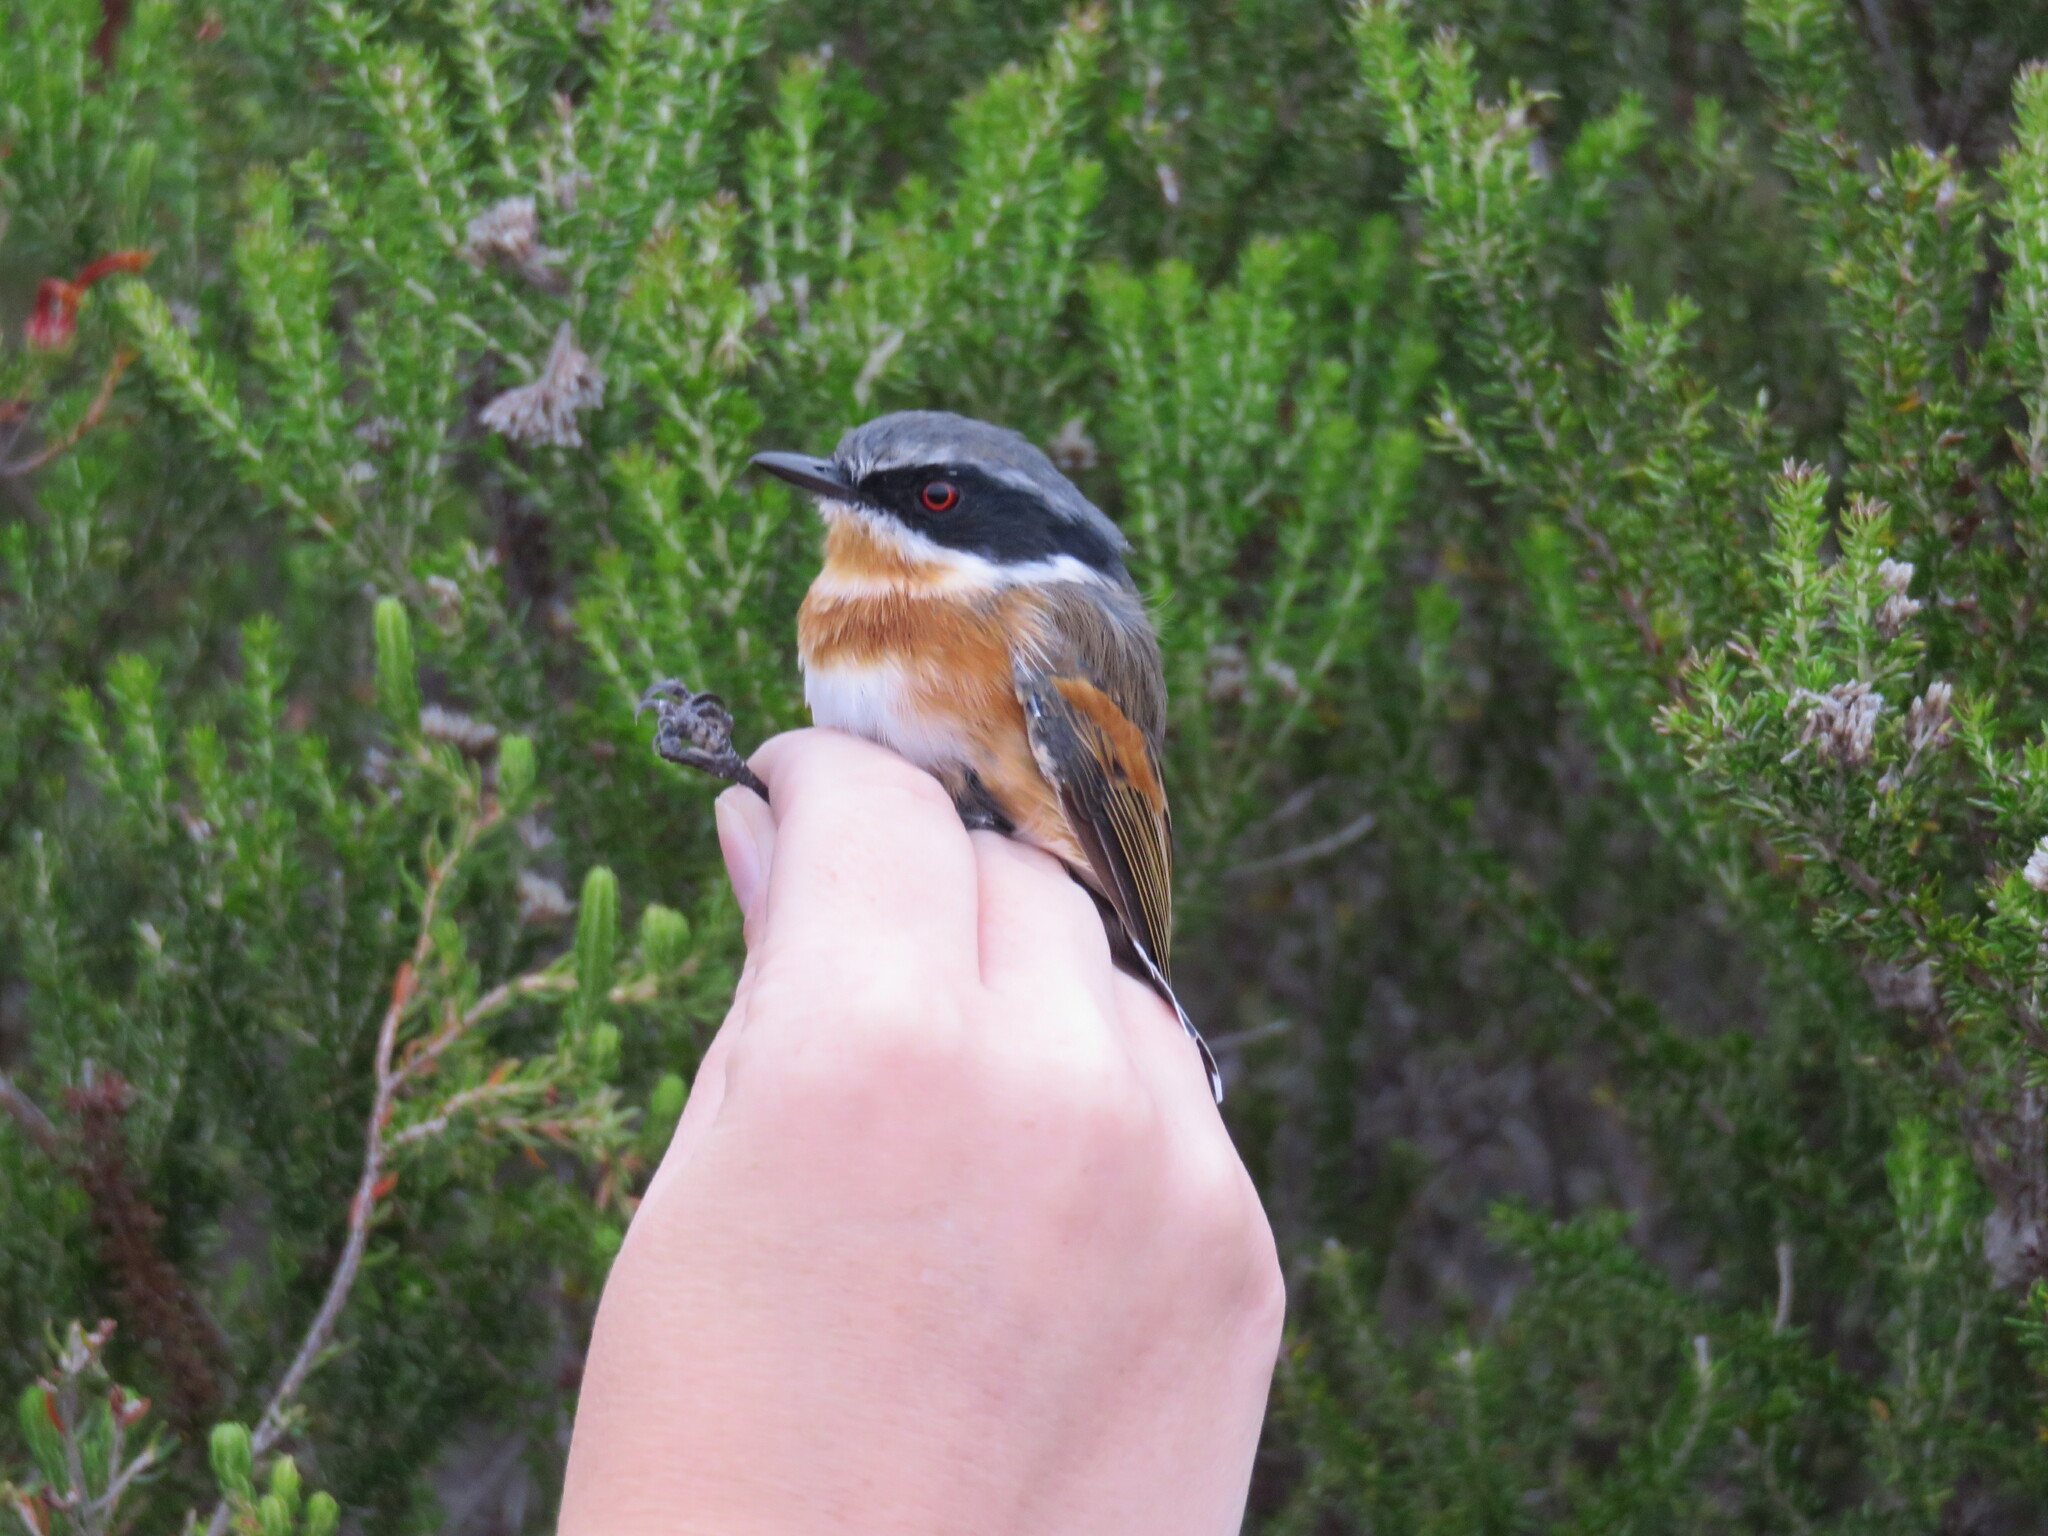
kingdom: Animalia
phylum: Chordata
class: Aves
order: Passeriformes
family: Platysteiridae
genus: Batis
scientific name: Batis capensis
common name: Cape batis
